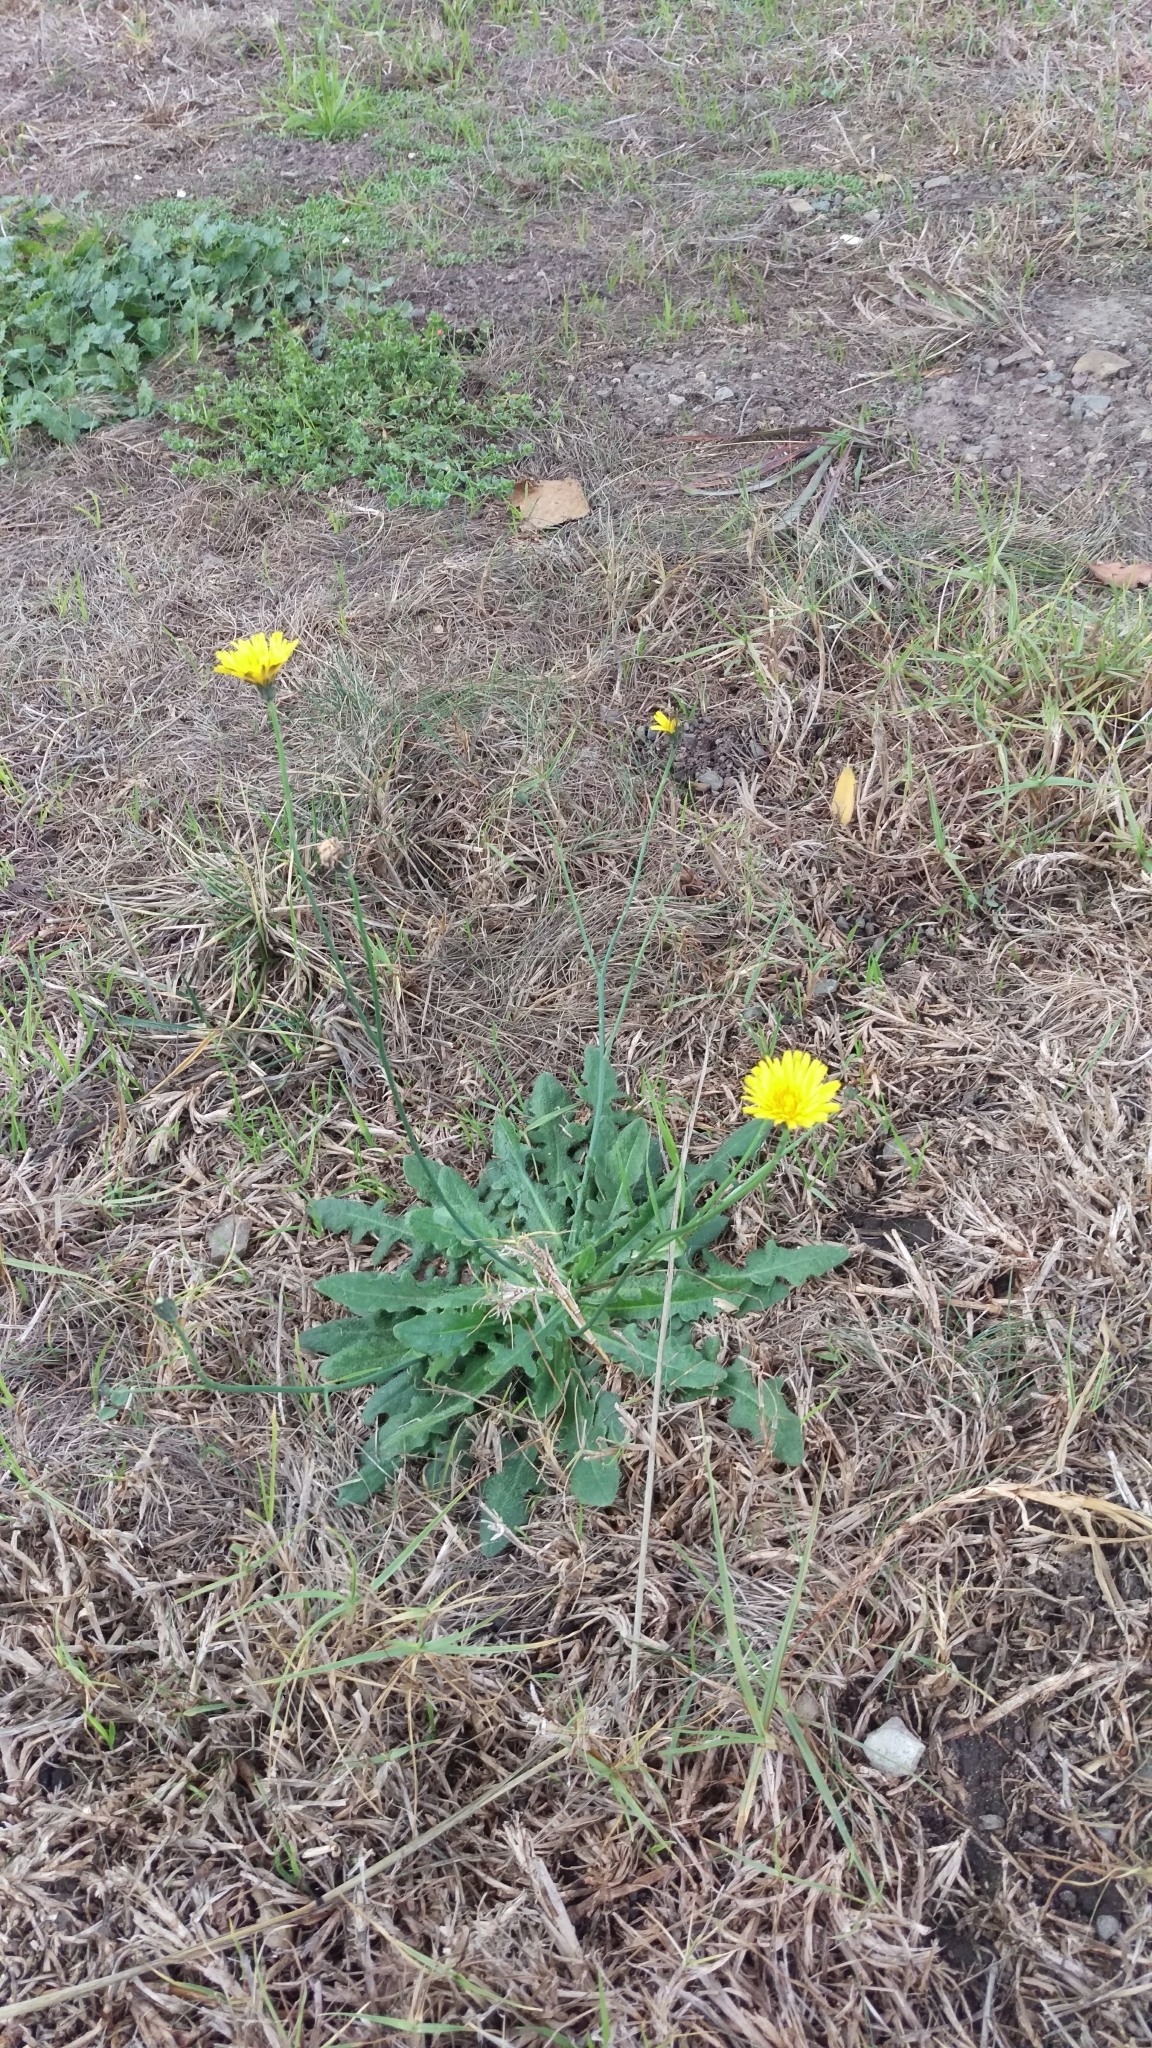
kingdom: Plantae
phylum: Tracheophyta
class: Magnoliopsida
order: Asterales
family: Asteraceae
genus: Hypochaeris
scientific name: Hypochaeris radicata
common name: Flatweed
